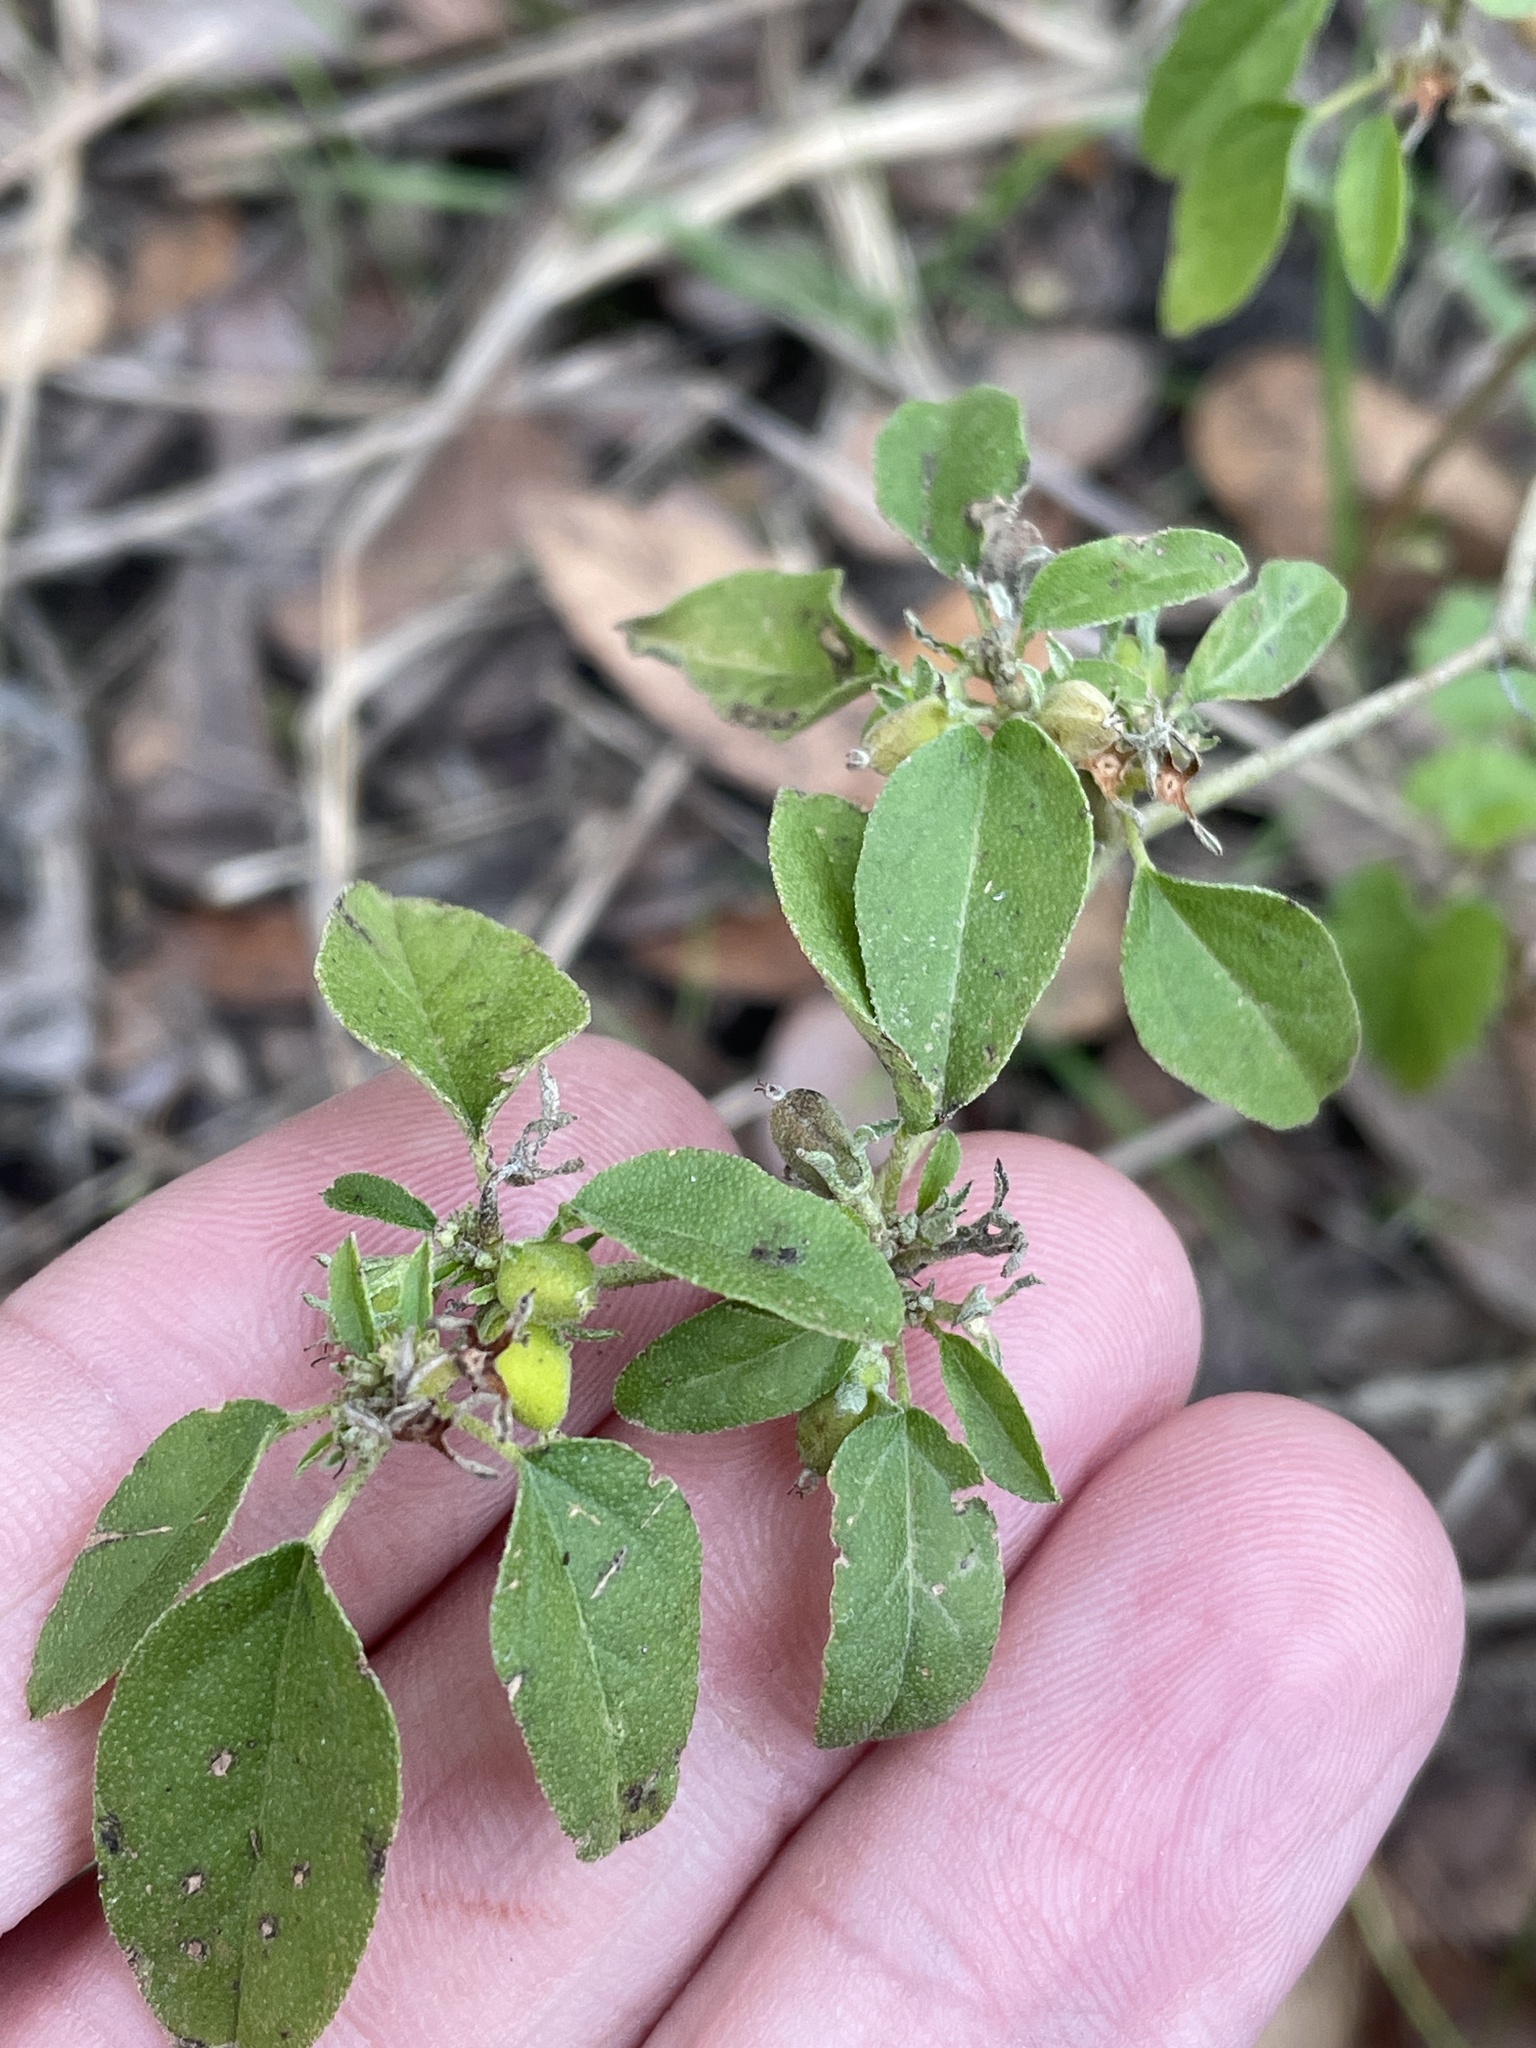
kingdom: Plantae
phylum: Tracheophyta
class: Magnoliopsida
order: Malpighiales
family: Euphorbiaceae
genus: Croton
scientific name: Croton monanthogynus
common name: One-seed croton
